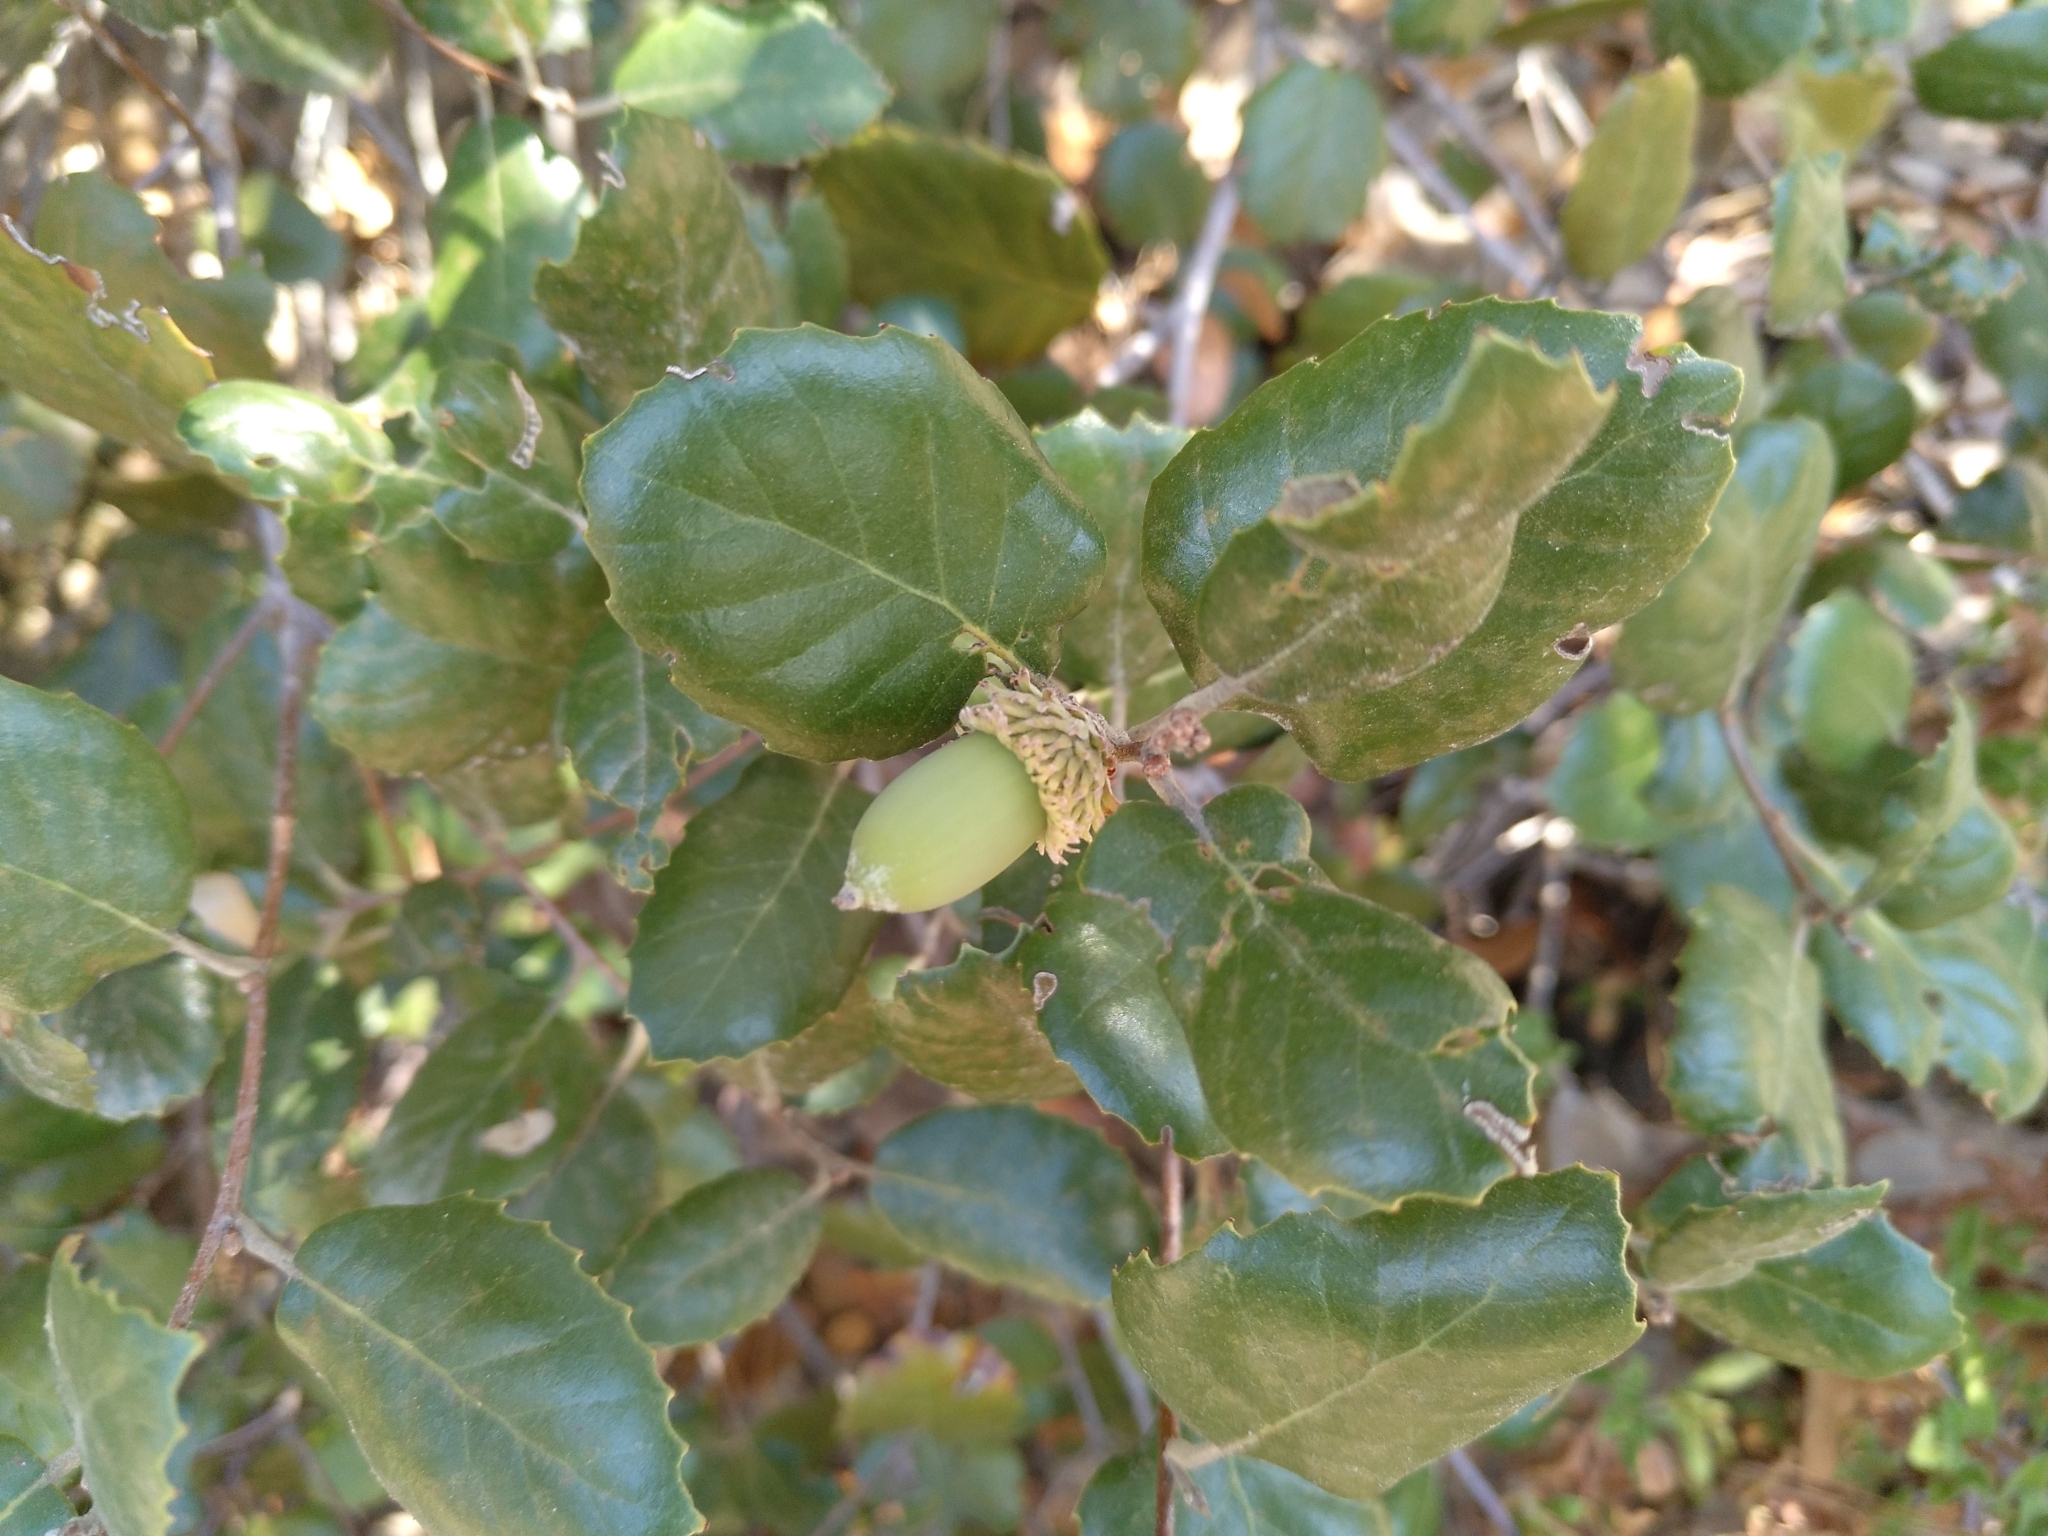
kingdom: Plantae
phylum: Tracheophyta
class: Magnoliopsida
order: Fagales
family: Fagaceae
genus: Quercus
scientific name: Quercus alnifolia
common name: Golden oak
